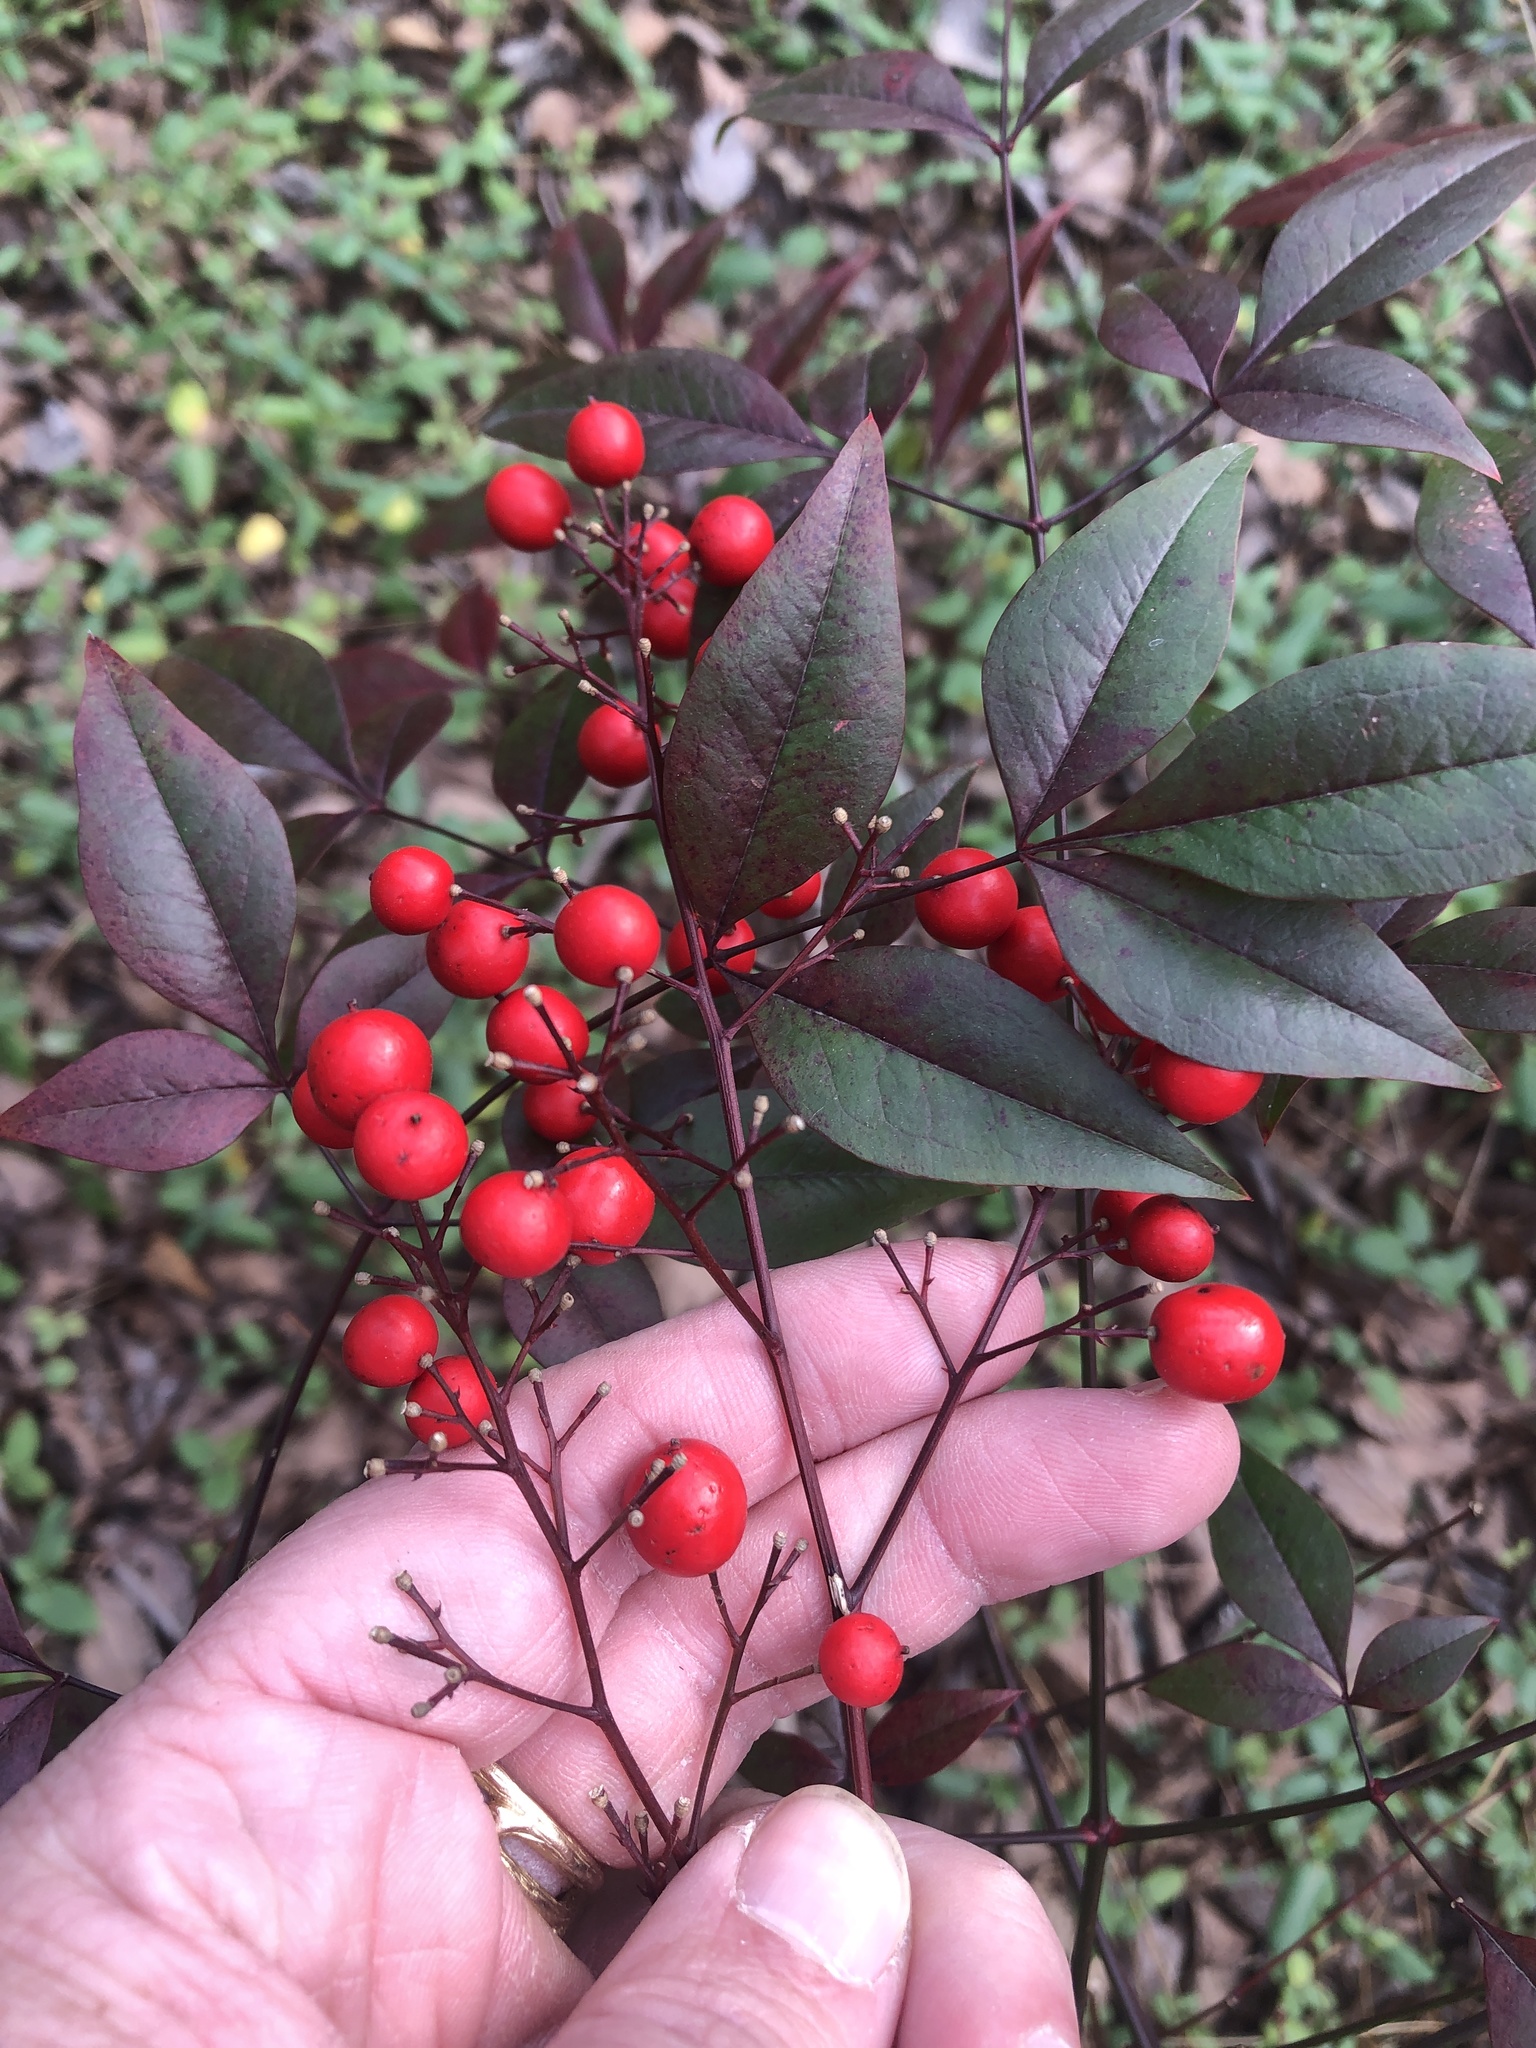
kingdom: Plantae
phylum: Tracheophyta
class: Magnoliopsida
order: Ranunculales
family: Berberidaceae
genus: Nandina
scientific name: Nandina domestica
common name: Sacred bamboo
